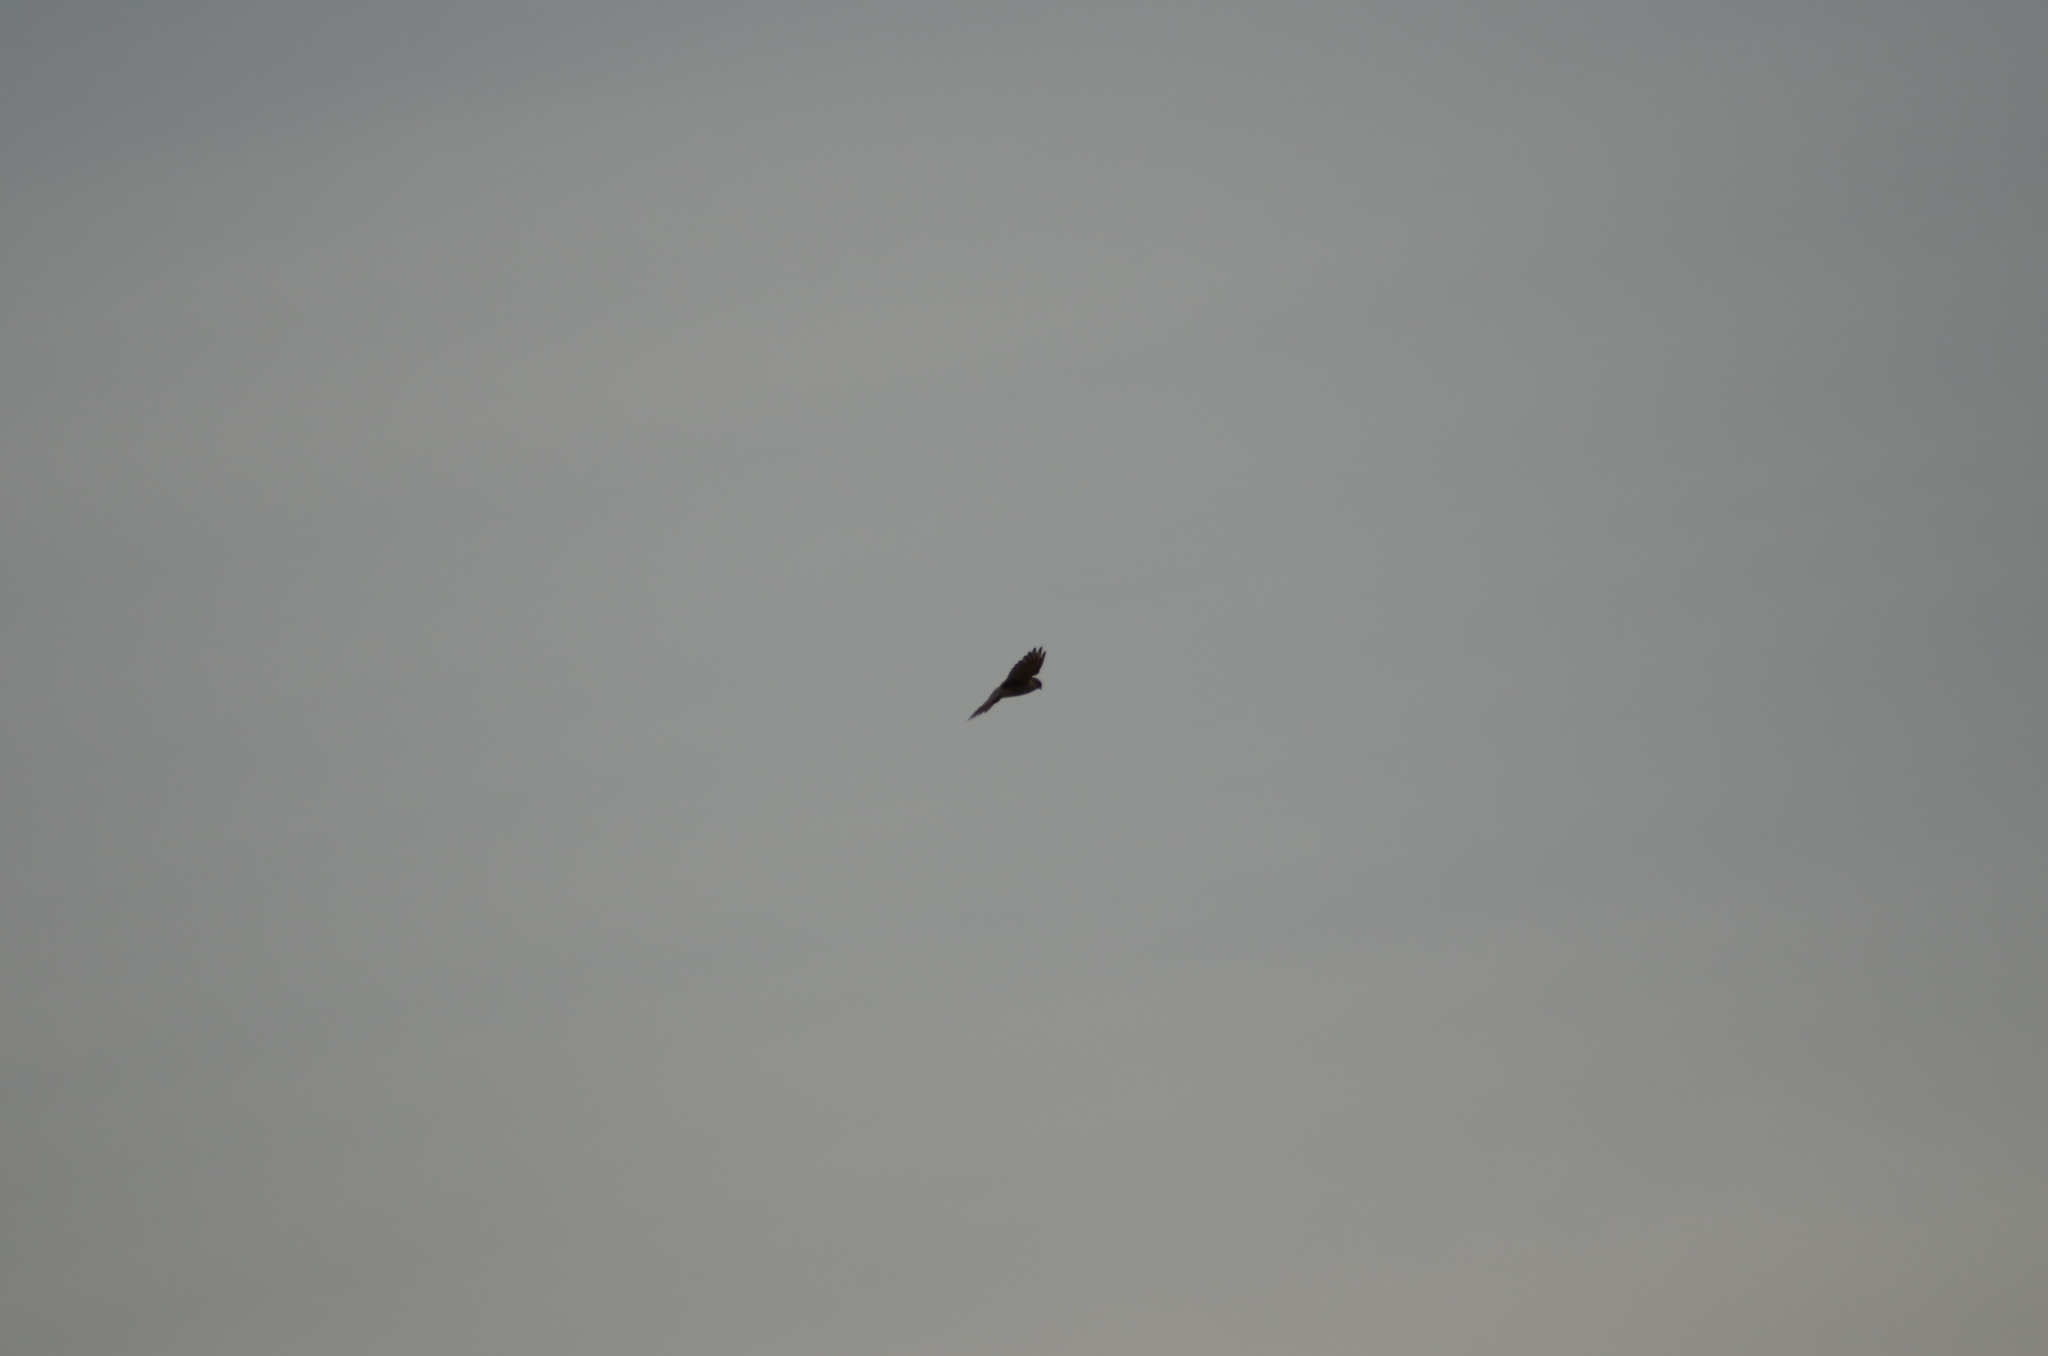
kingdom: Animalia
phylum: Chordata
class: Aves
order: Falconiformes
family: Falconidae
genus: Falco
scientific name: Falco tinnunculus
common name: Common kestrel
